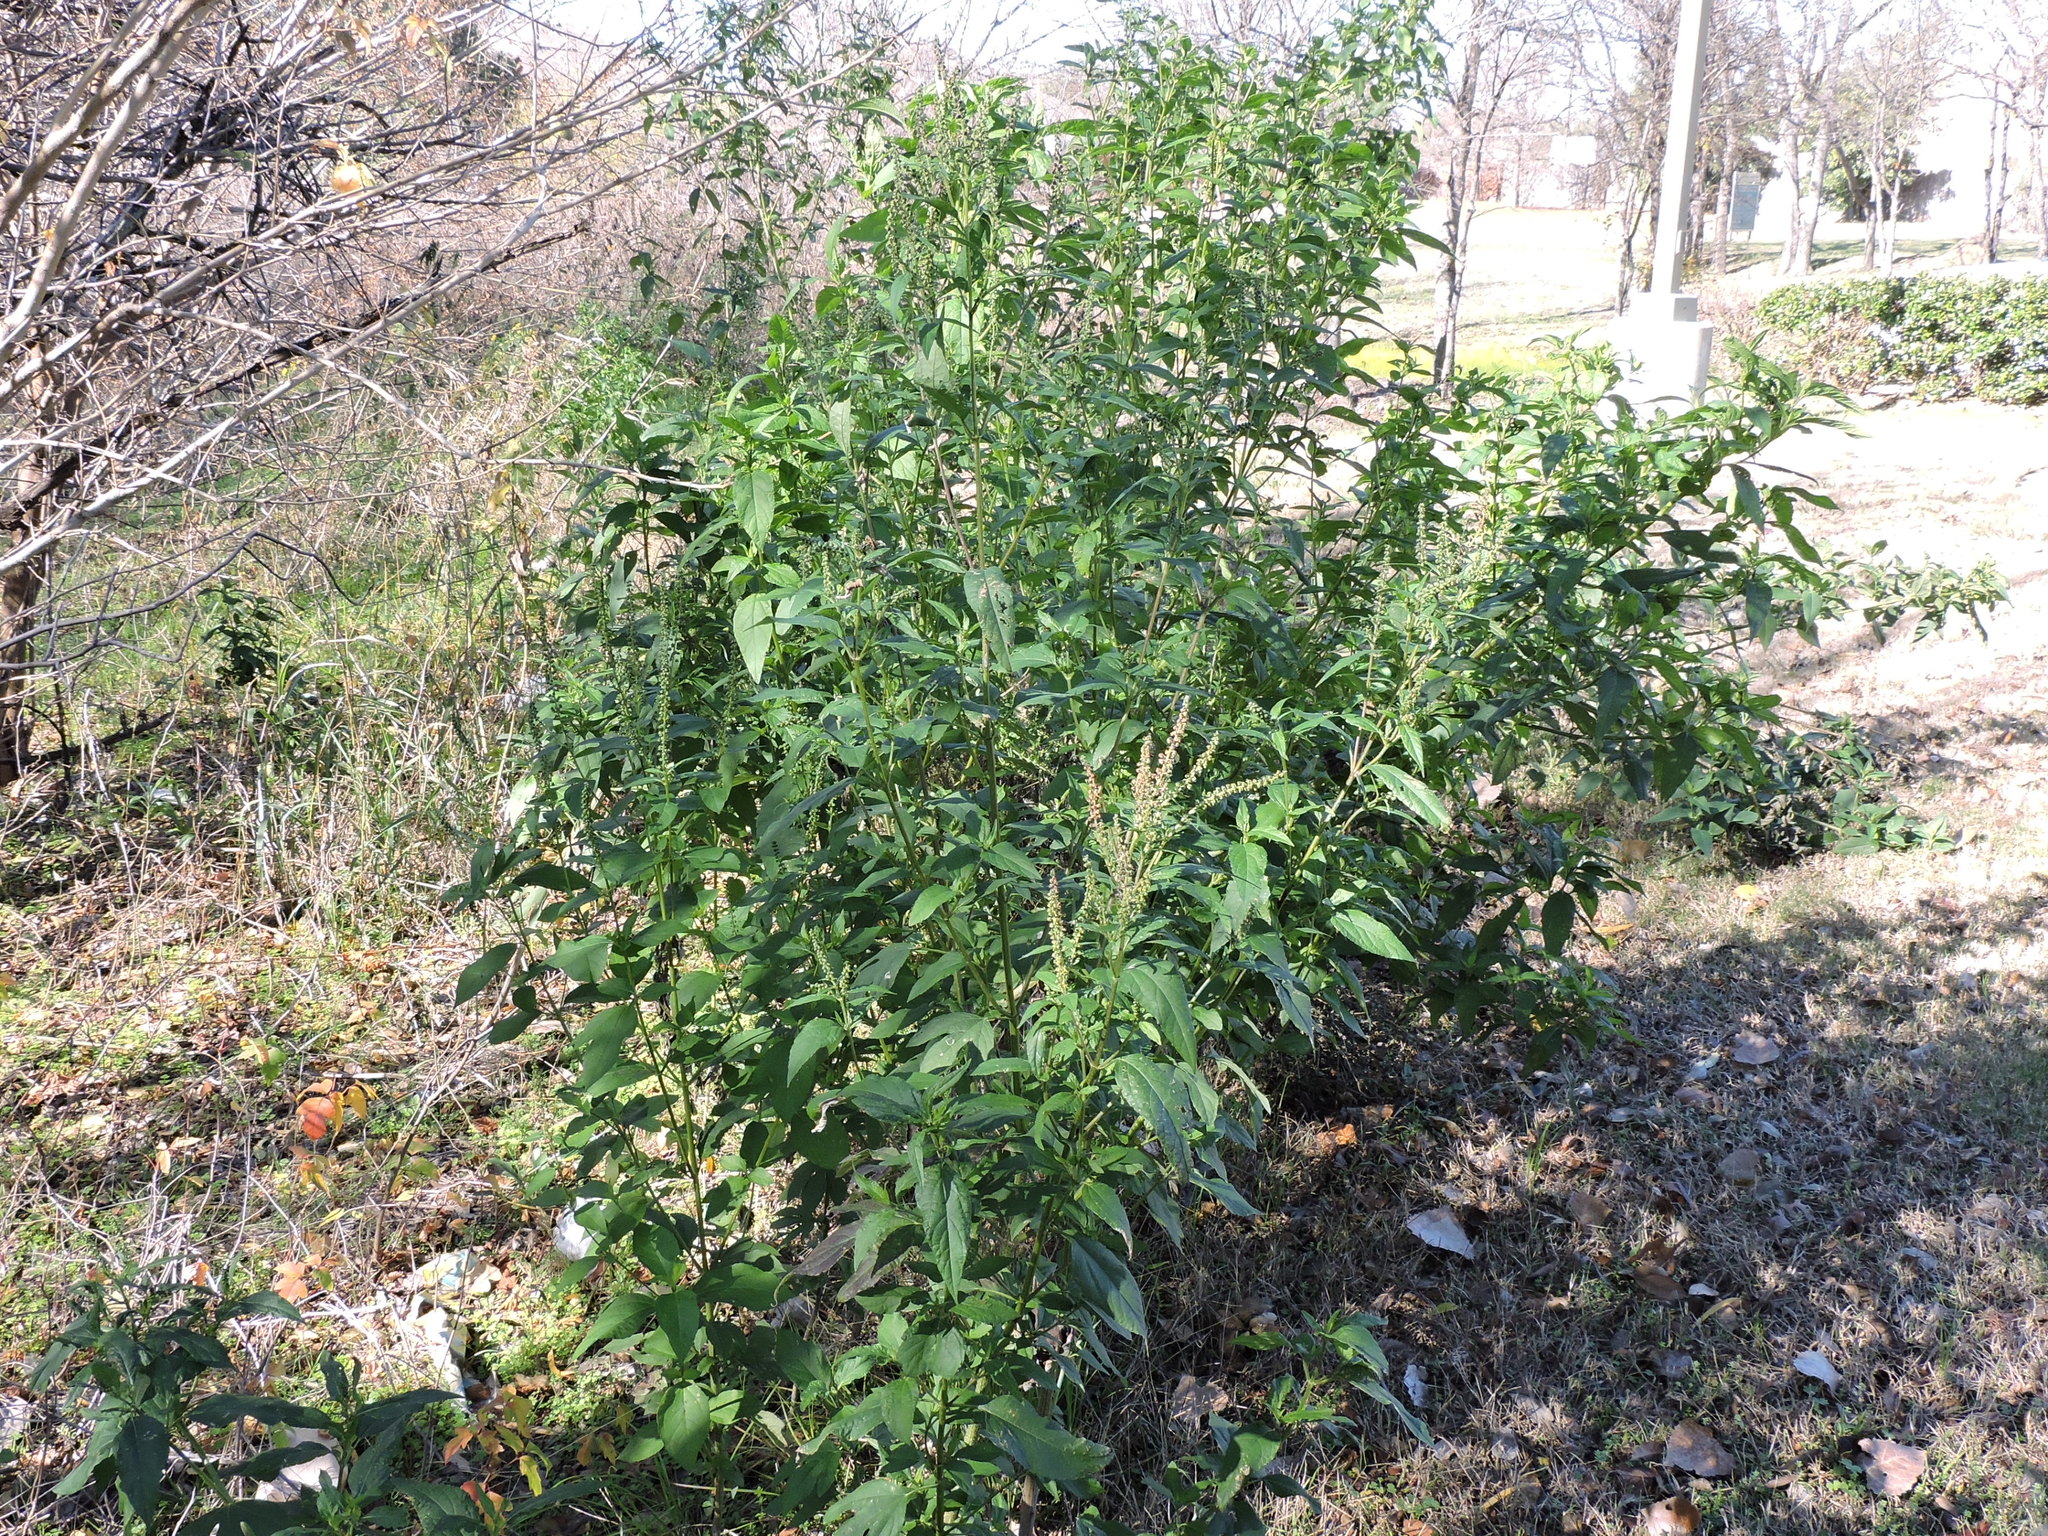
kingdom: Plantae
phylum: Tracheophyta
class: Magnoliopsida
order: Asterales
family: Asteraceae
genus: Ambrosia
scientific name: Ambrosia trifida
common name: Giant ragweed
